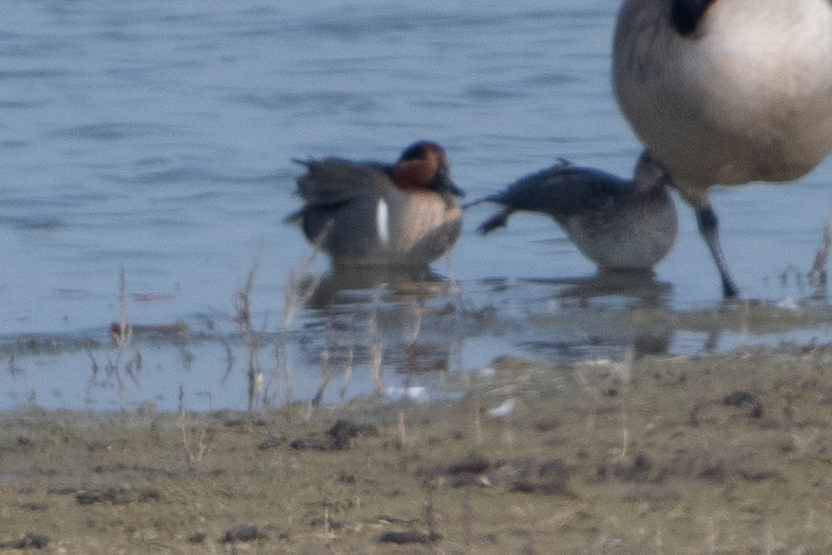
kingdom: Animalia
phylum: Chordata
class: Aves
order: Anseriformes
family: Anatidae
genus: Anas
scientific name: Anas crecca
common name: Eurasian teal
